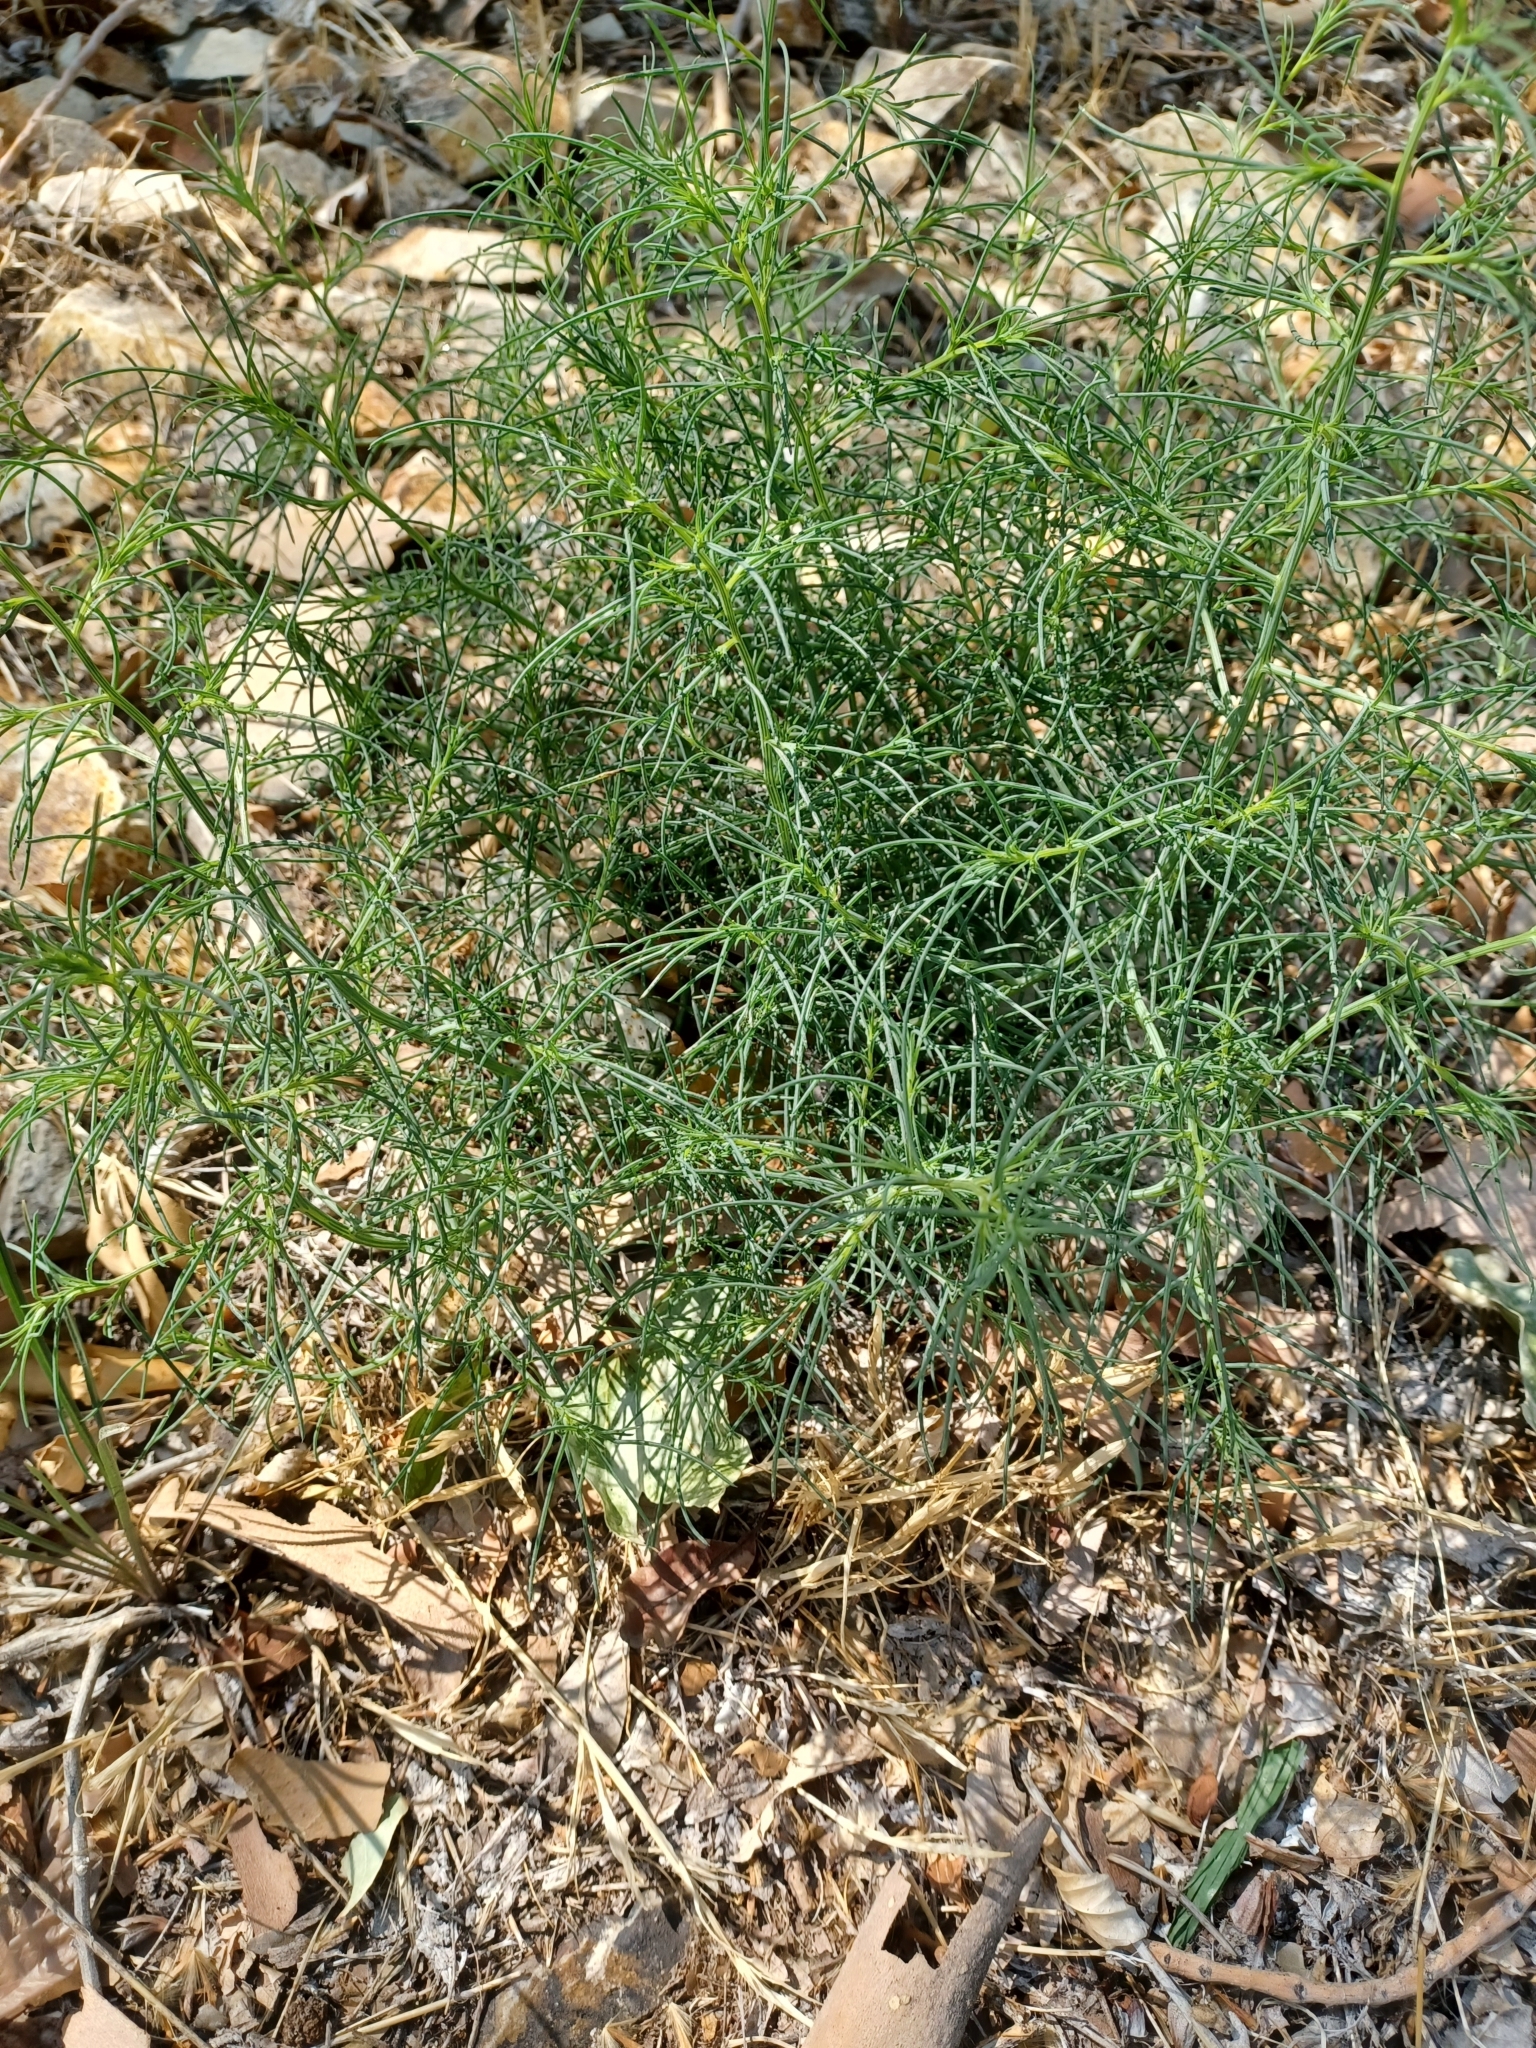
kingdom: Plantae
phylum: Tracheophyta
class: Magnoliopsida
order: Caryophyllales
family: Amaranthaceae
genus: Salsola
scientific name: Salsola tragus
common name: Prickly russian thistle
